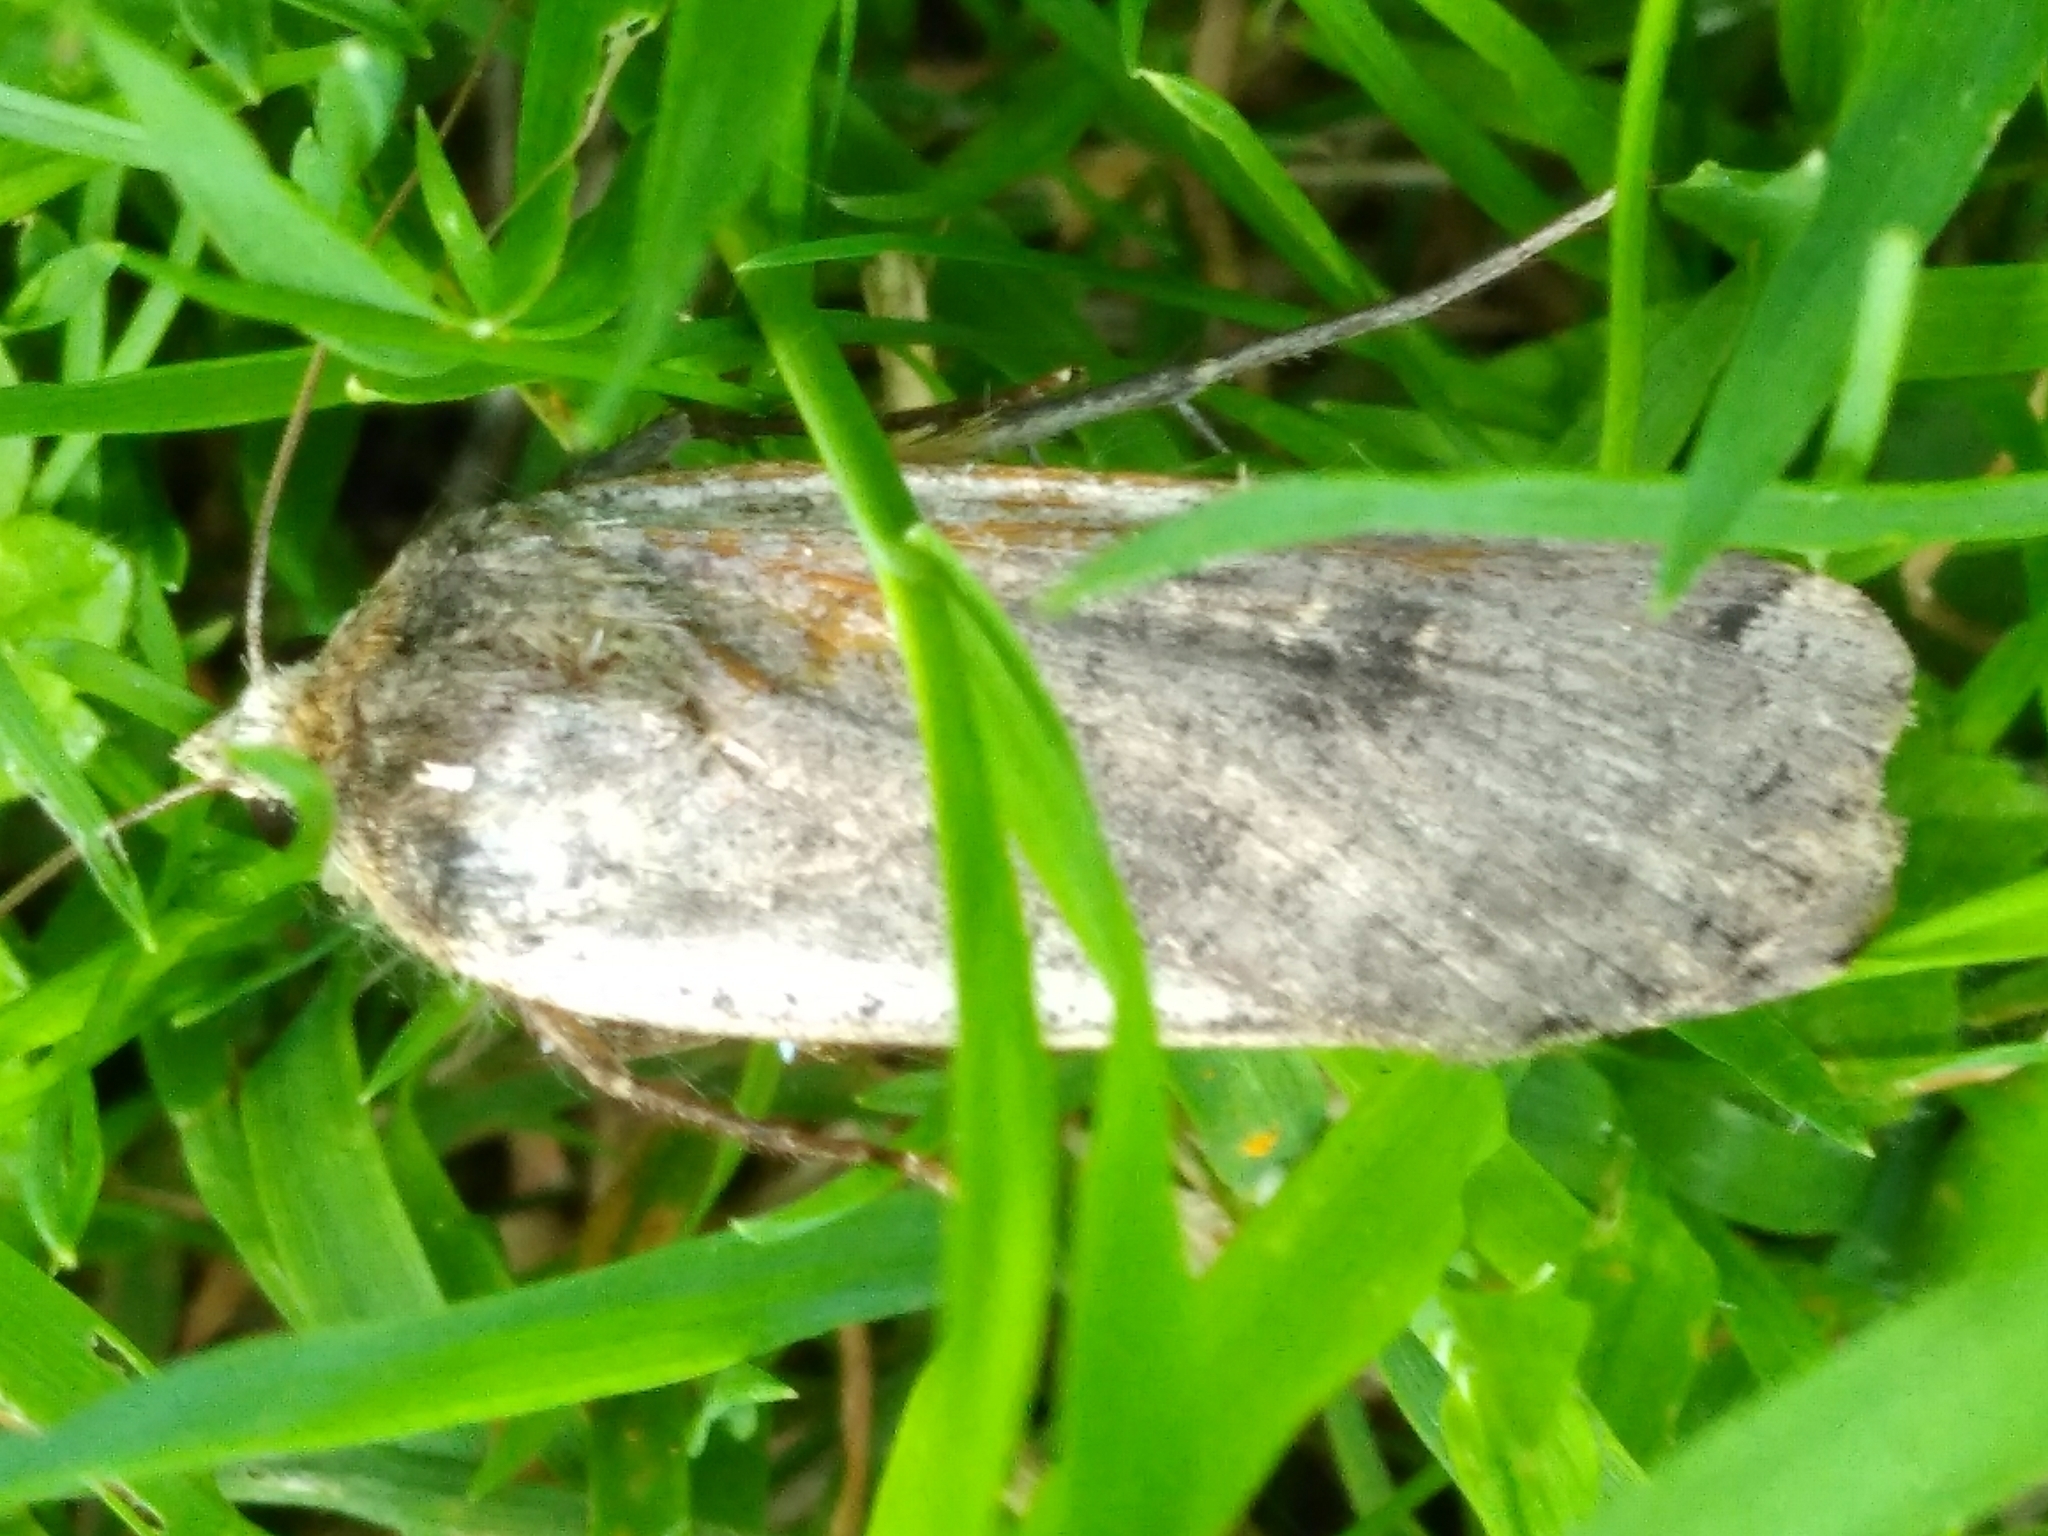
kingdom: Animalia
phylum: Arthropoda
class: Insecta
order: Lepidoptera
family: Noctuidae
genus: Noctua
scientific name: Noctua pronuba
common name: Large yellow underwing
